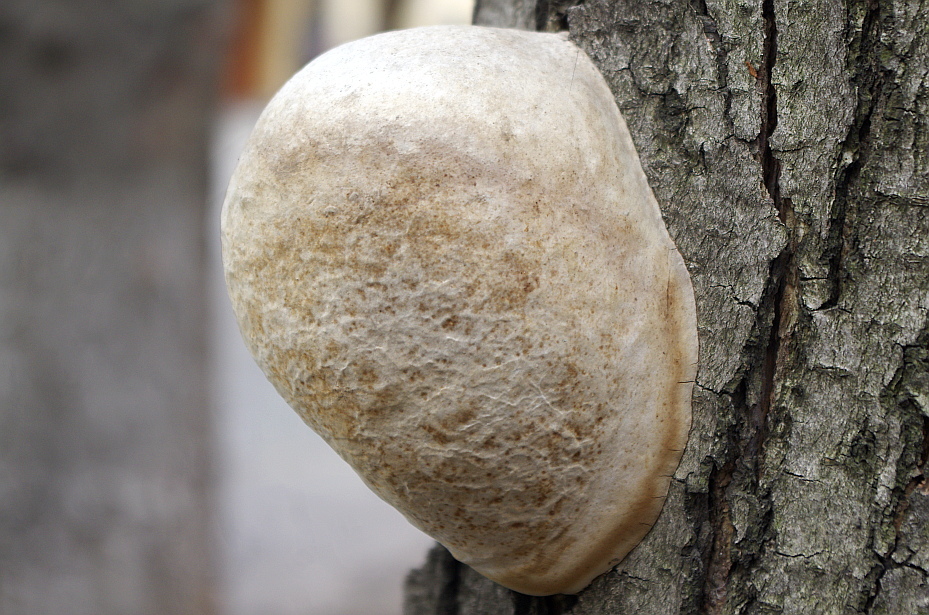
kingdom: Fungi
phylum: Basidiomycota
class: Agaricomycetes
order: Polyporales
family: Polyporaceae
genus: Fomes
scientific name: Fomes fomentarius
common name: Hoof fungus
